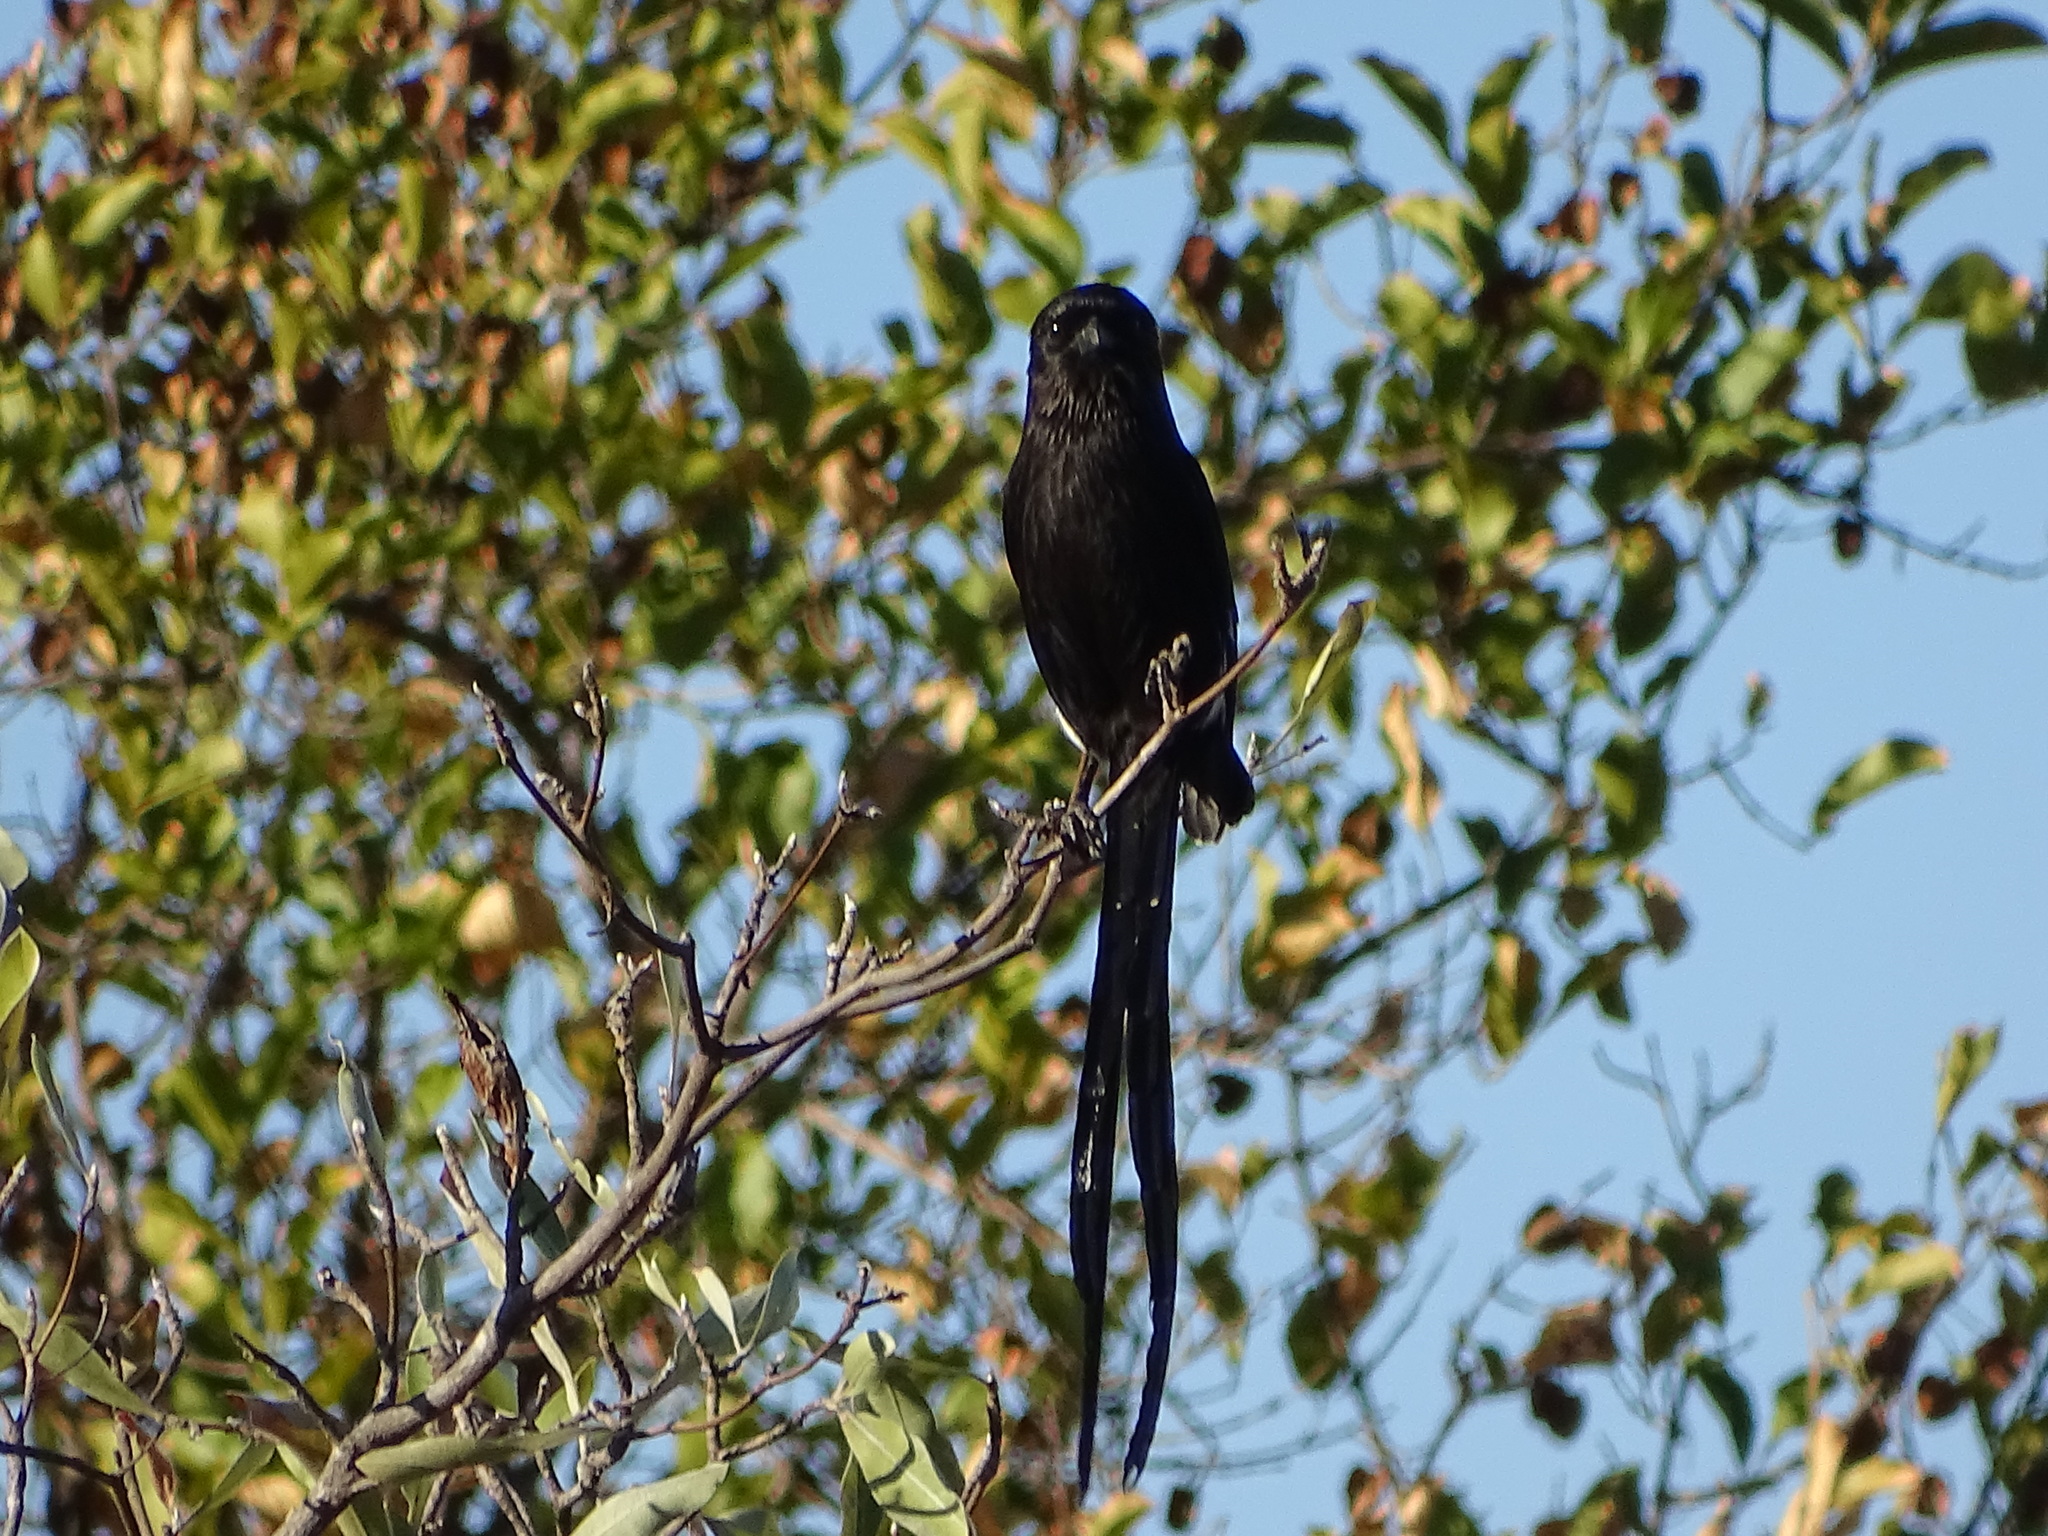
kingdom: Animalia
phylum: Chordata
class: Aves
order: Passeriformes
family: Laniidae
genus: Urolestes
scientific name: Urolestes melanoleucus
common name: Magpie shrike
